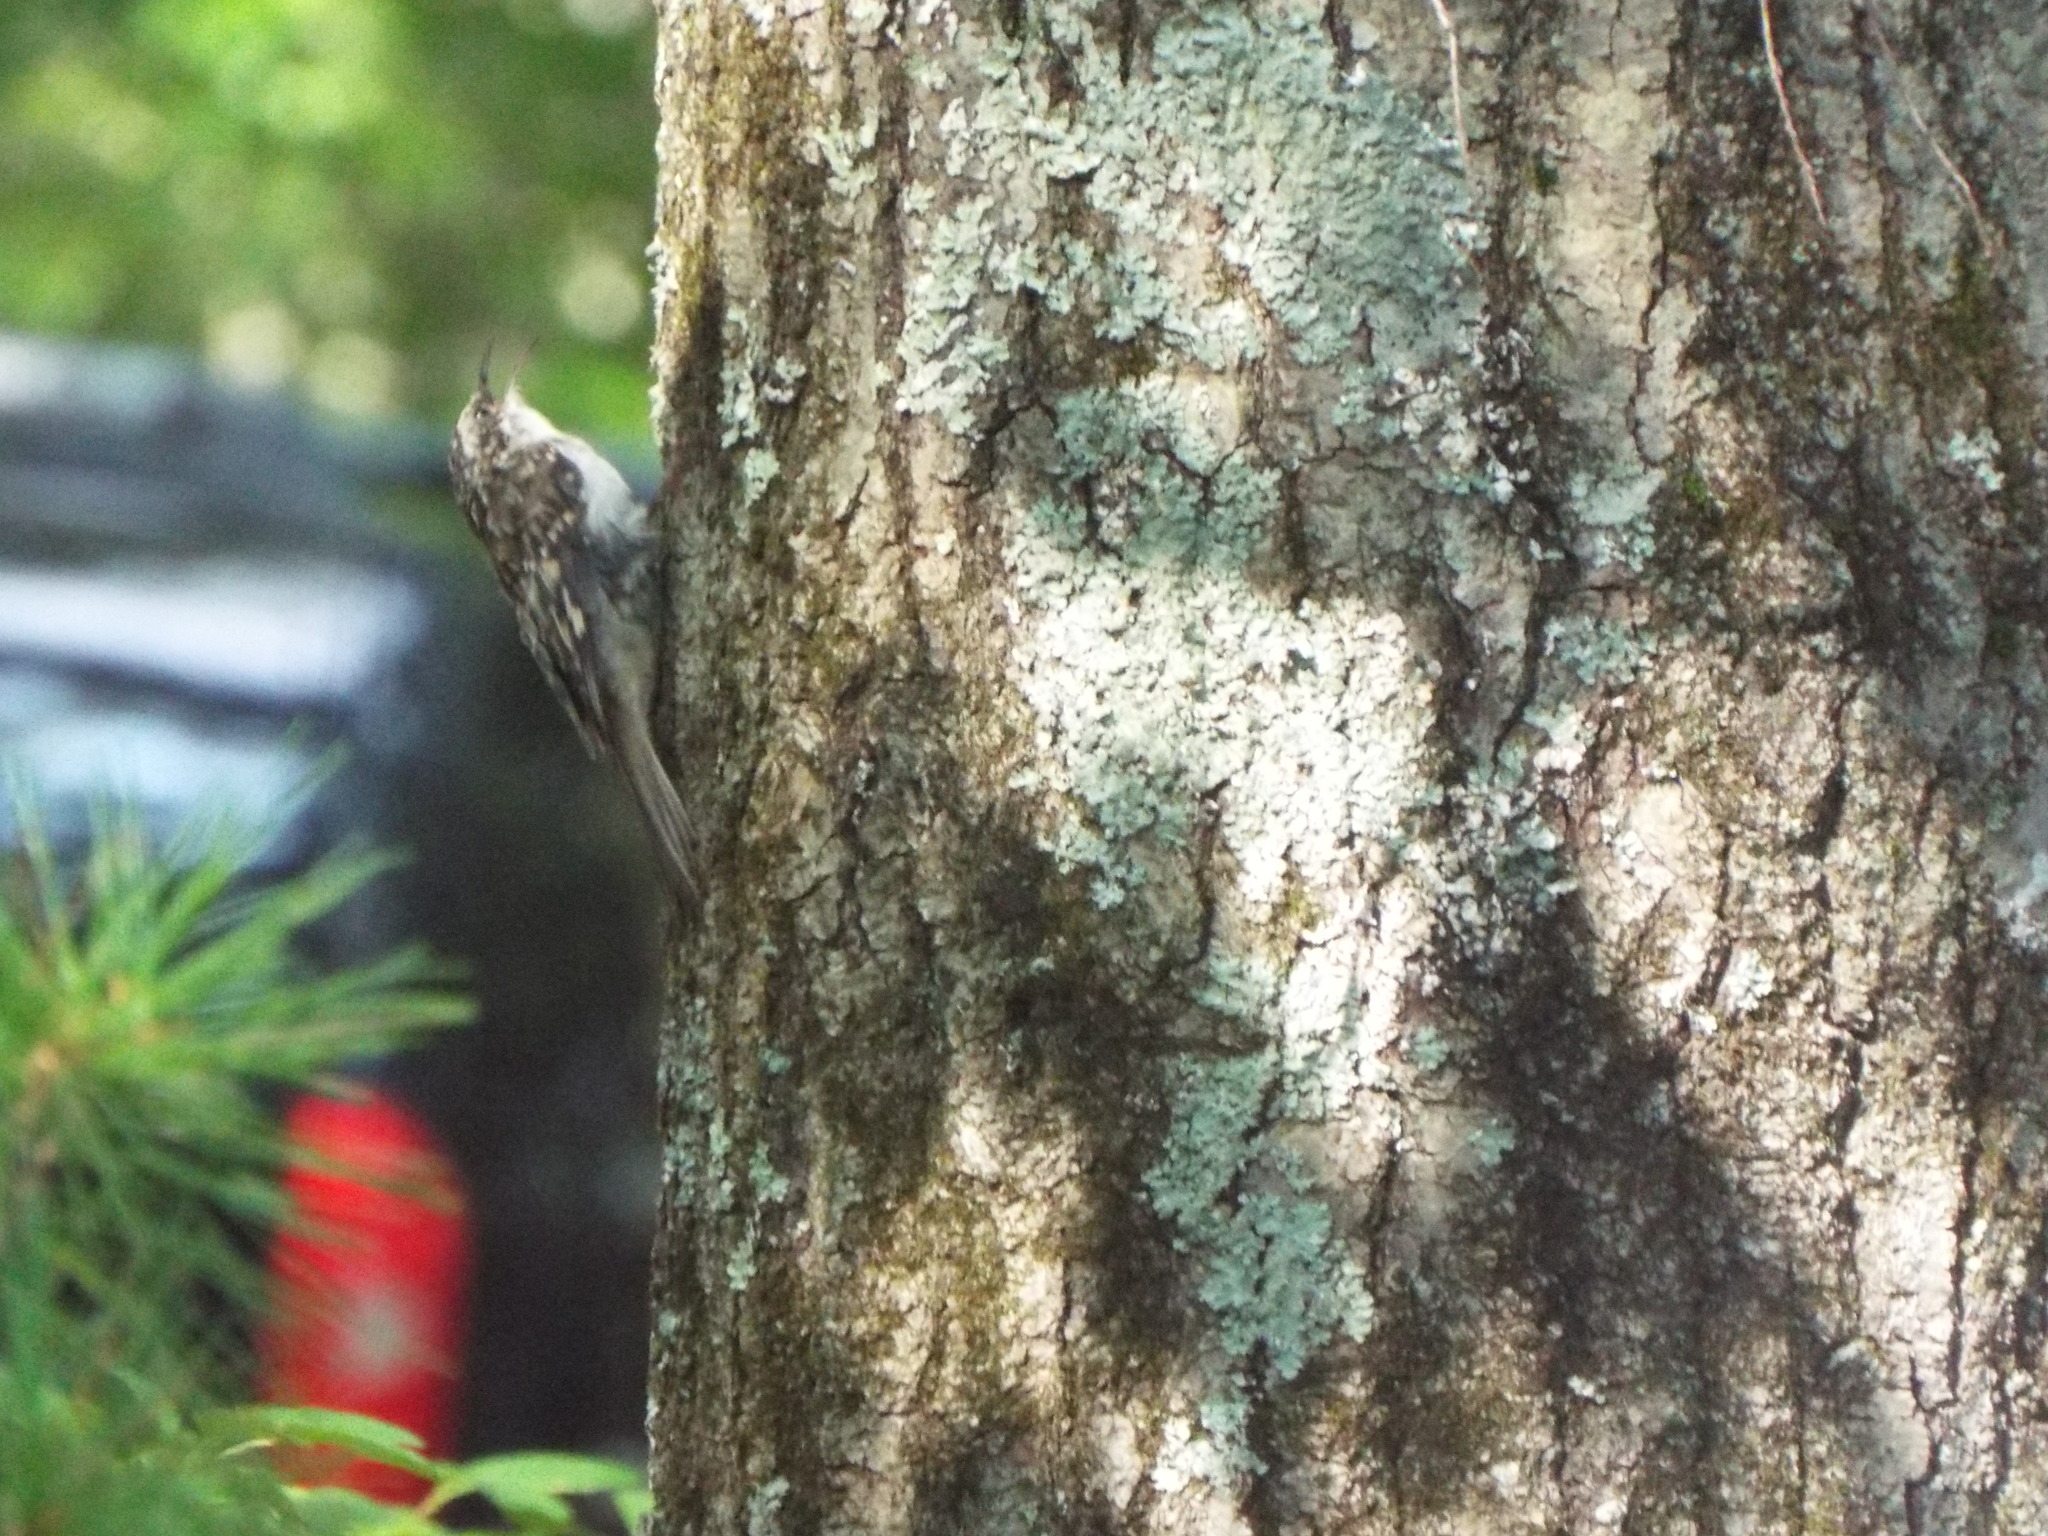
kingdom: Animalia
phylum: Chordata
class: Aves
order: Passeriformes
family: Certhiidae
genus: Certhia
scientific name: Certhia americana
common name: Brown creeper
